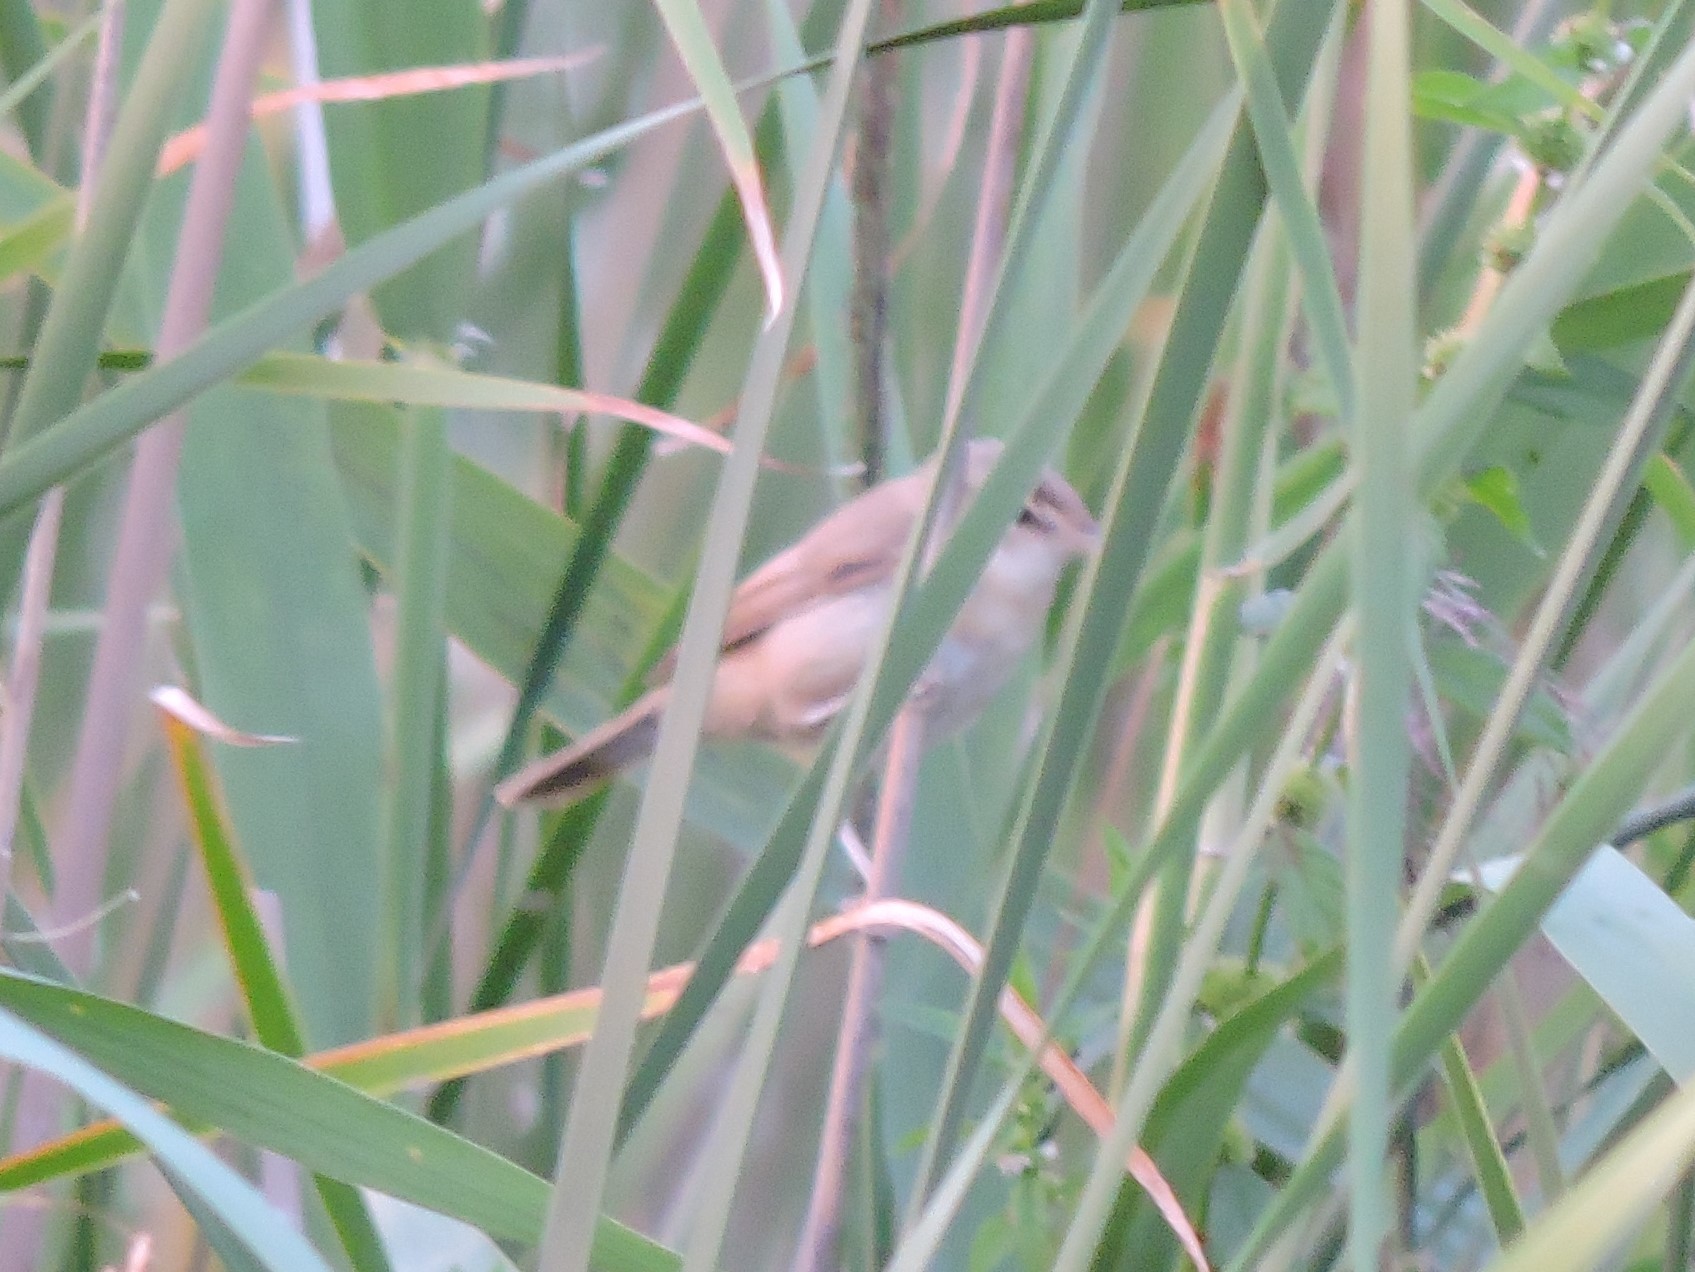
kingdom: Animalia
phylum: Chordata
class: Aves
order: Passeriformes
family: Acrocephalidae
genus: Acrocephalus
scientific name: Acrocephalus agricola
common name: Paddyfield warbler
